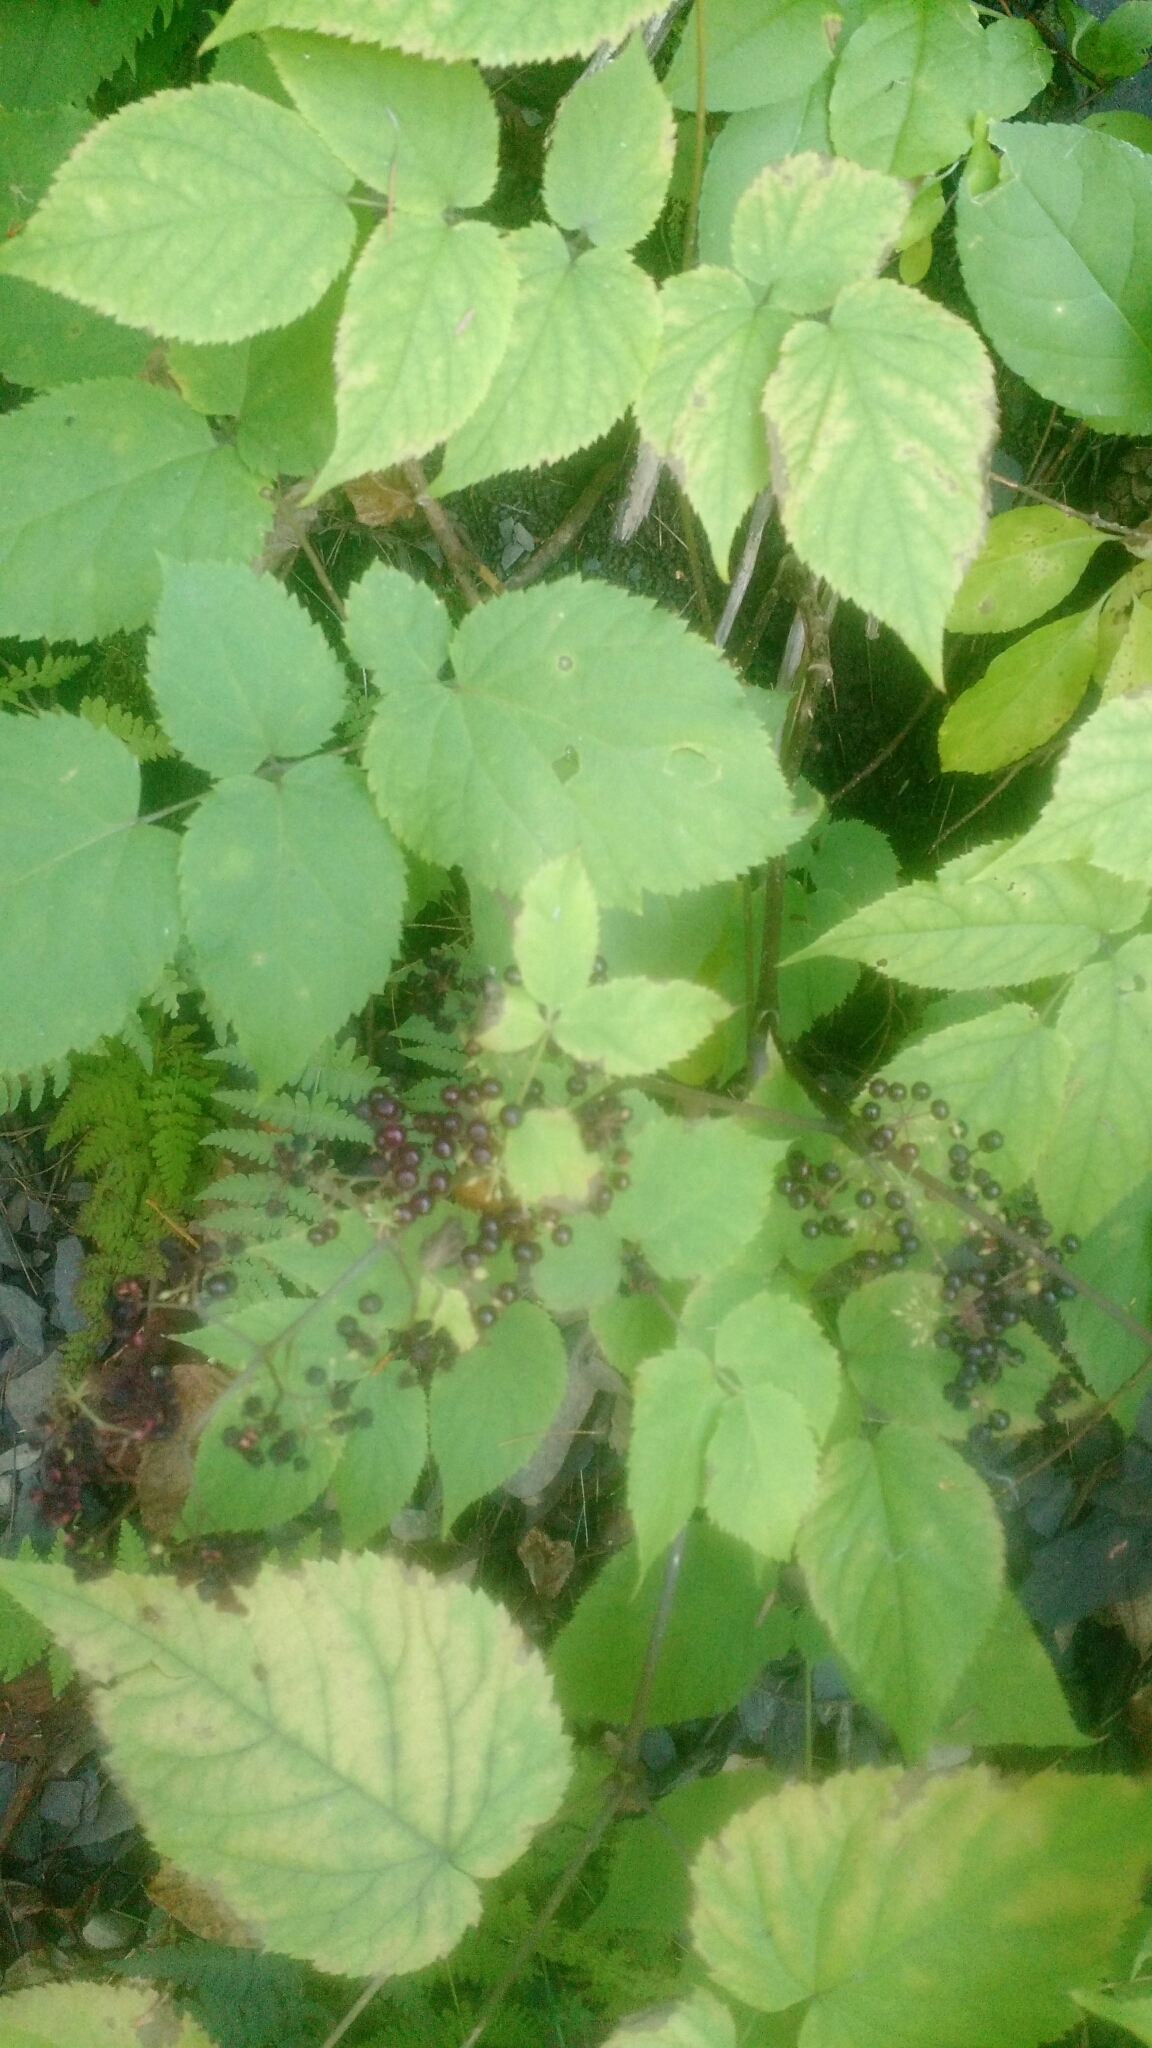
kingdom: Plantae
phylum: Tracheophyta
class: Magnoliopsida
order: Apiales
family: Araliaceae
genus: Aralia
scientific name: Aralia racemosa
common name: American-spikenard
